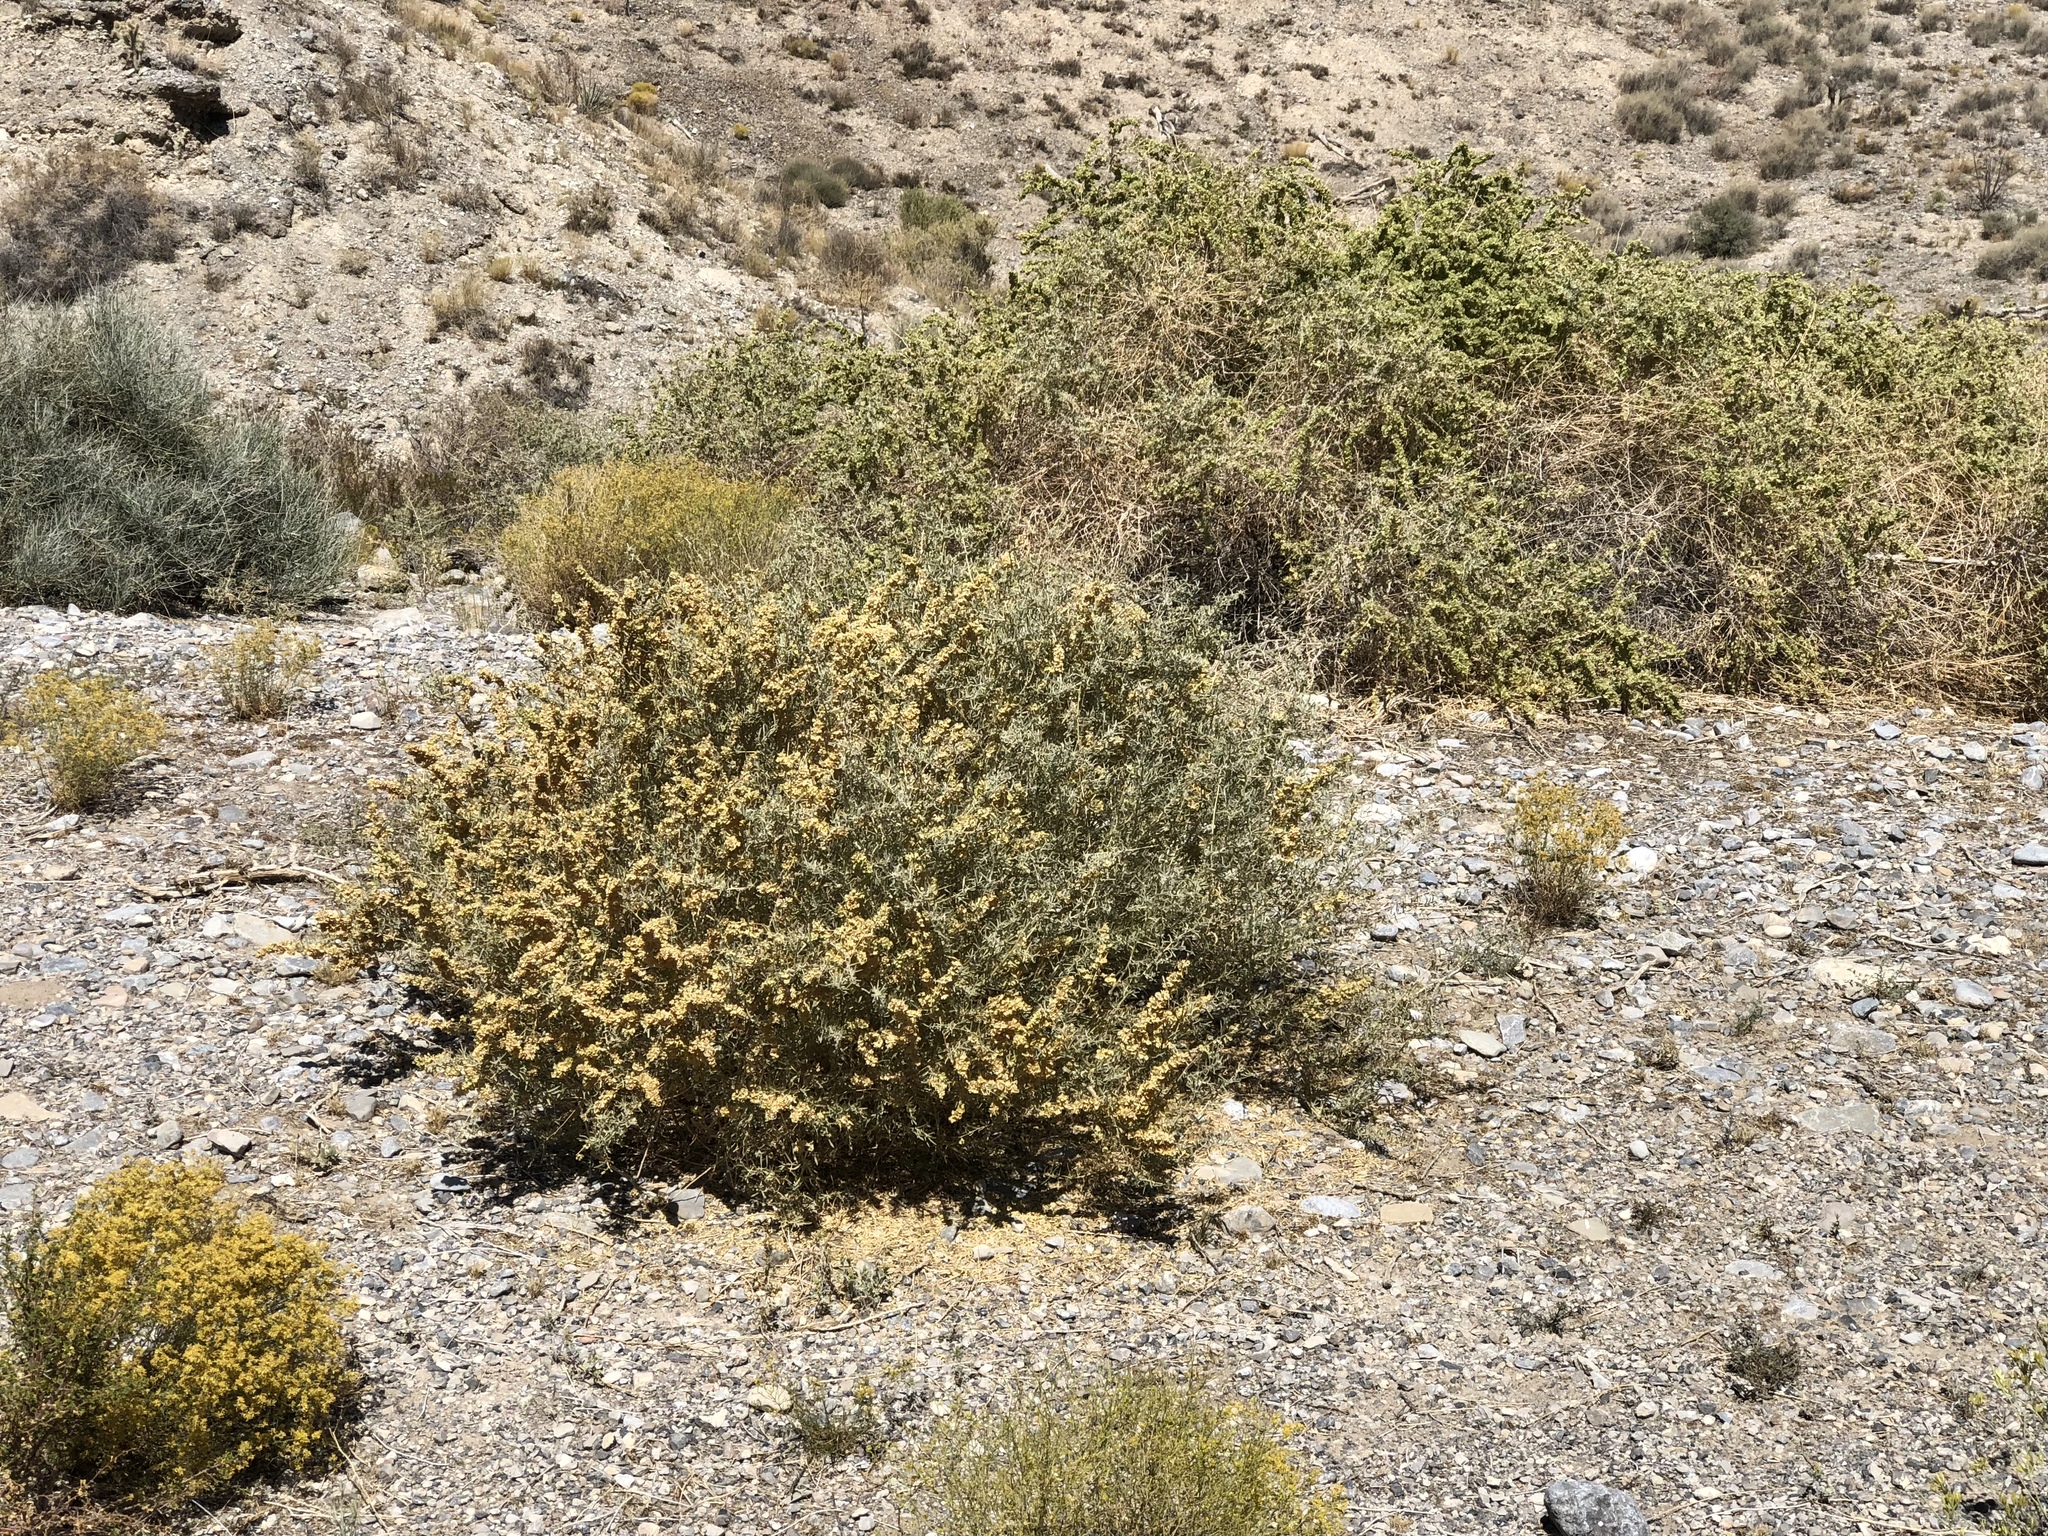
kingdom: Plantae
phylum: Tracheophyta
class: Magnoliopsida
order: Caryophyllales
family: Amaranthaceae
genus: Atriplex
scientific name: Atriplex canescens
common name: Four-wing saltbush
